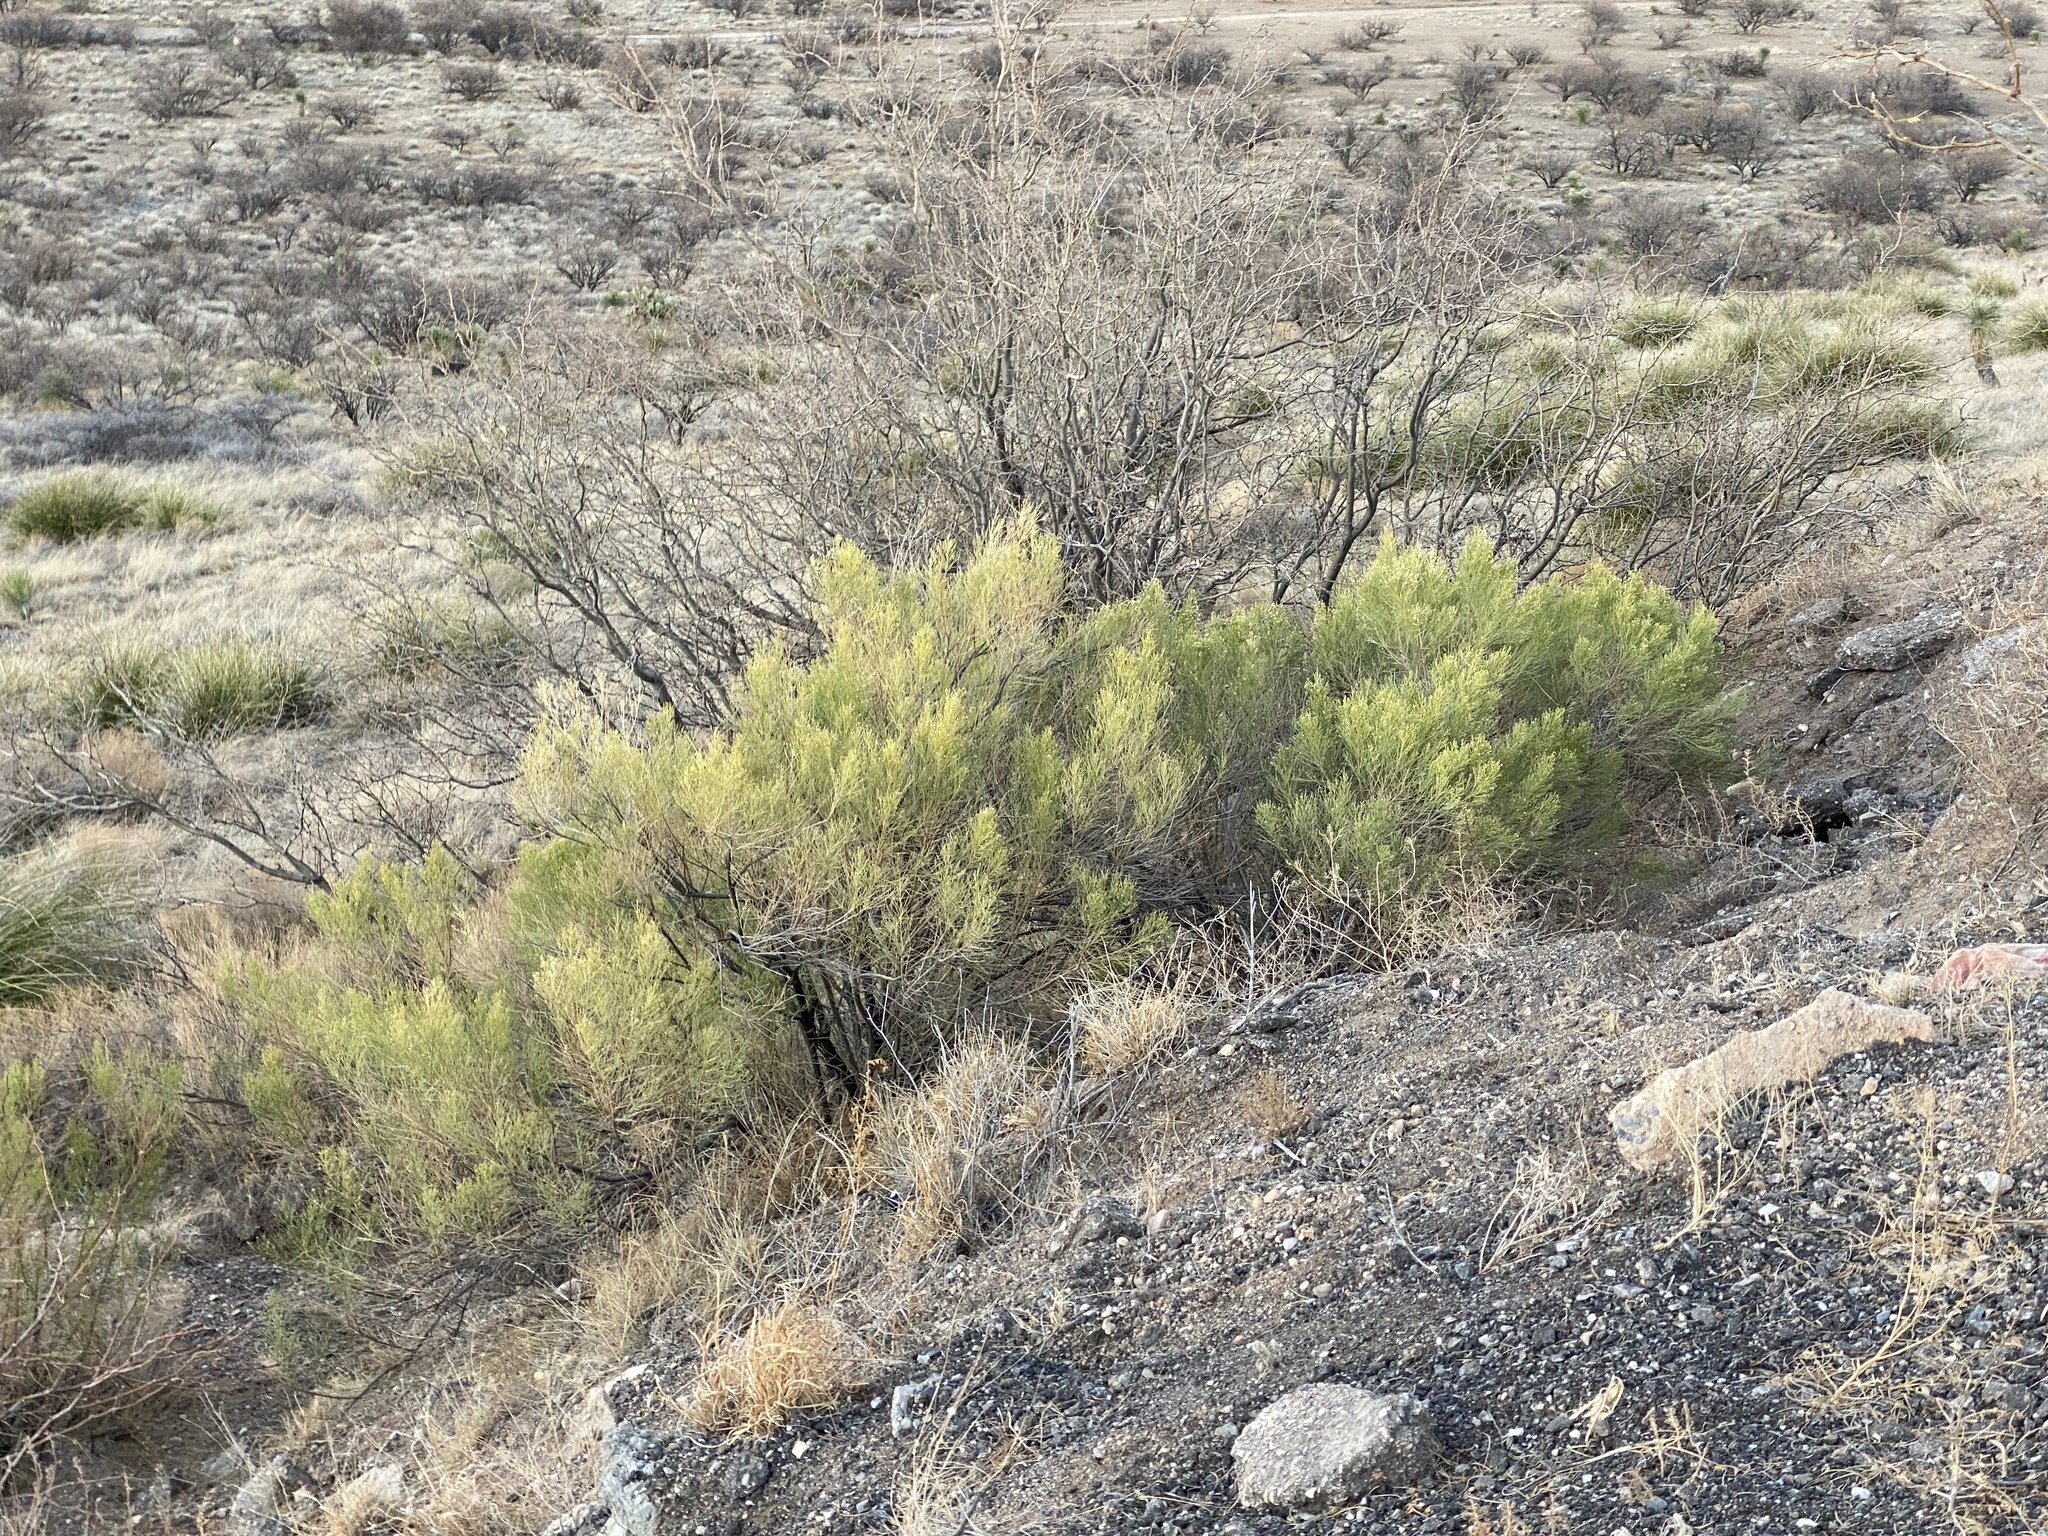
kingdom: Plantae
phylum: Tracheophyta
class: Magnoliopsida
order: Asterales
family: Asteraceae
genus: Baccharis
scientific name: Baccharis sarothroides
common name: Desert-broom
